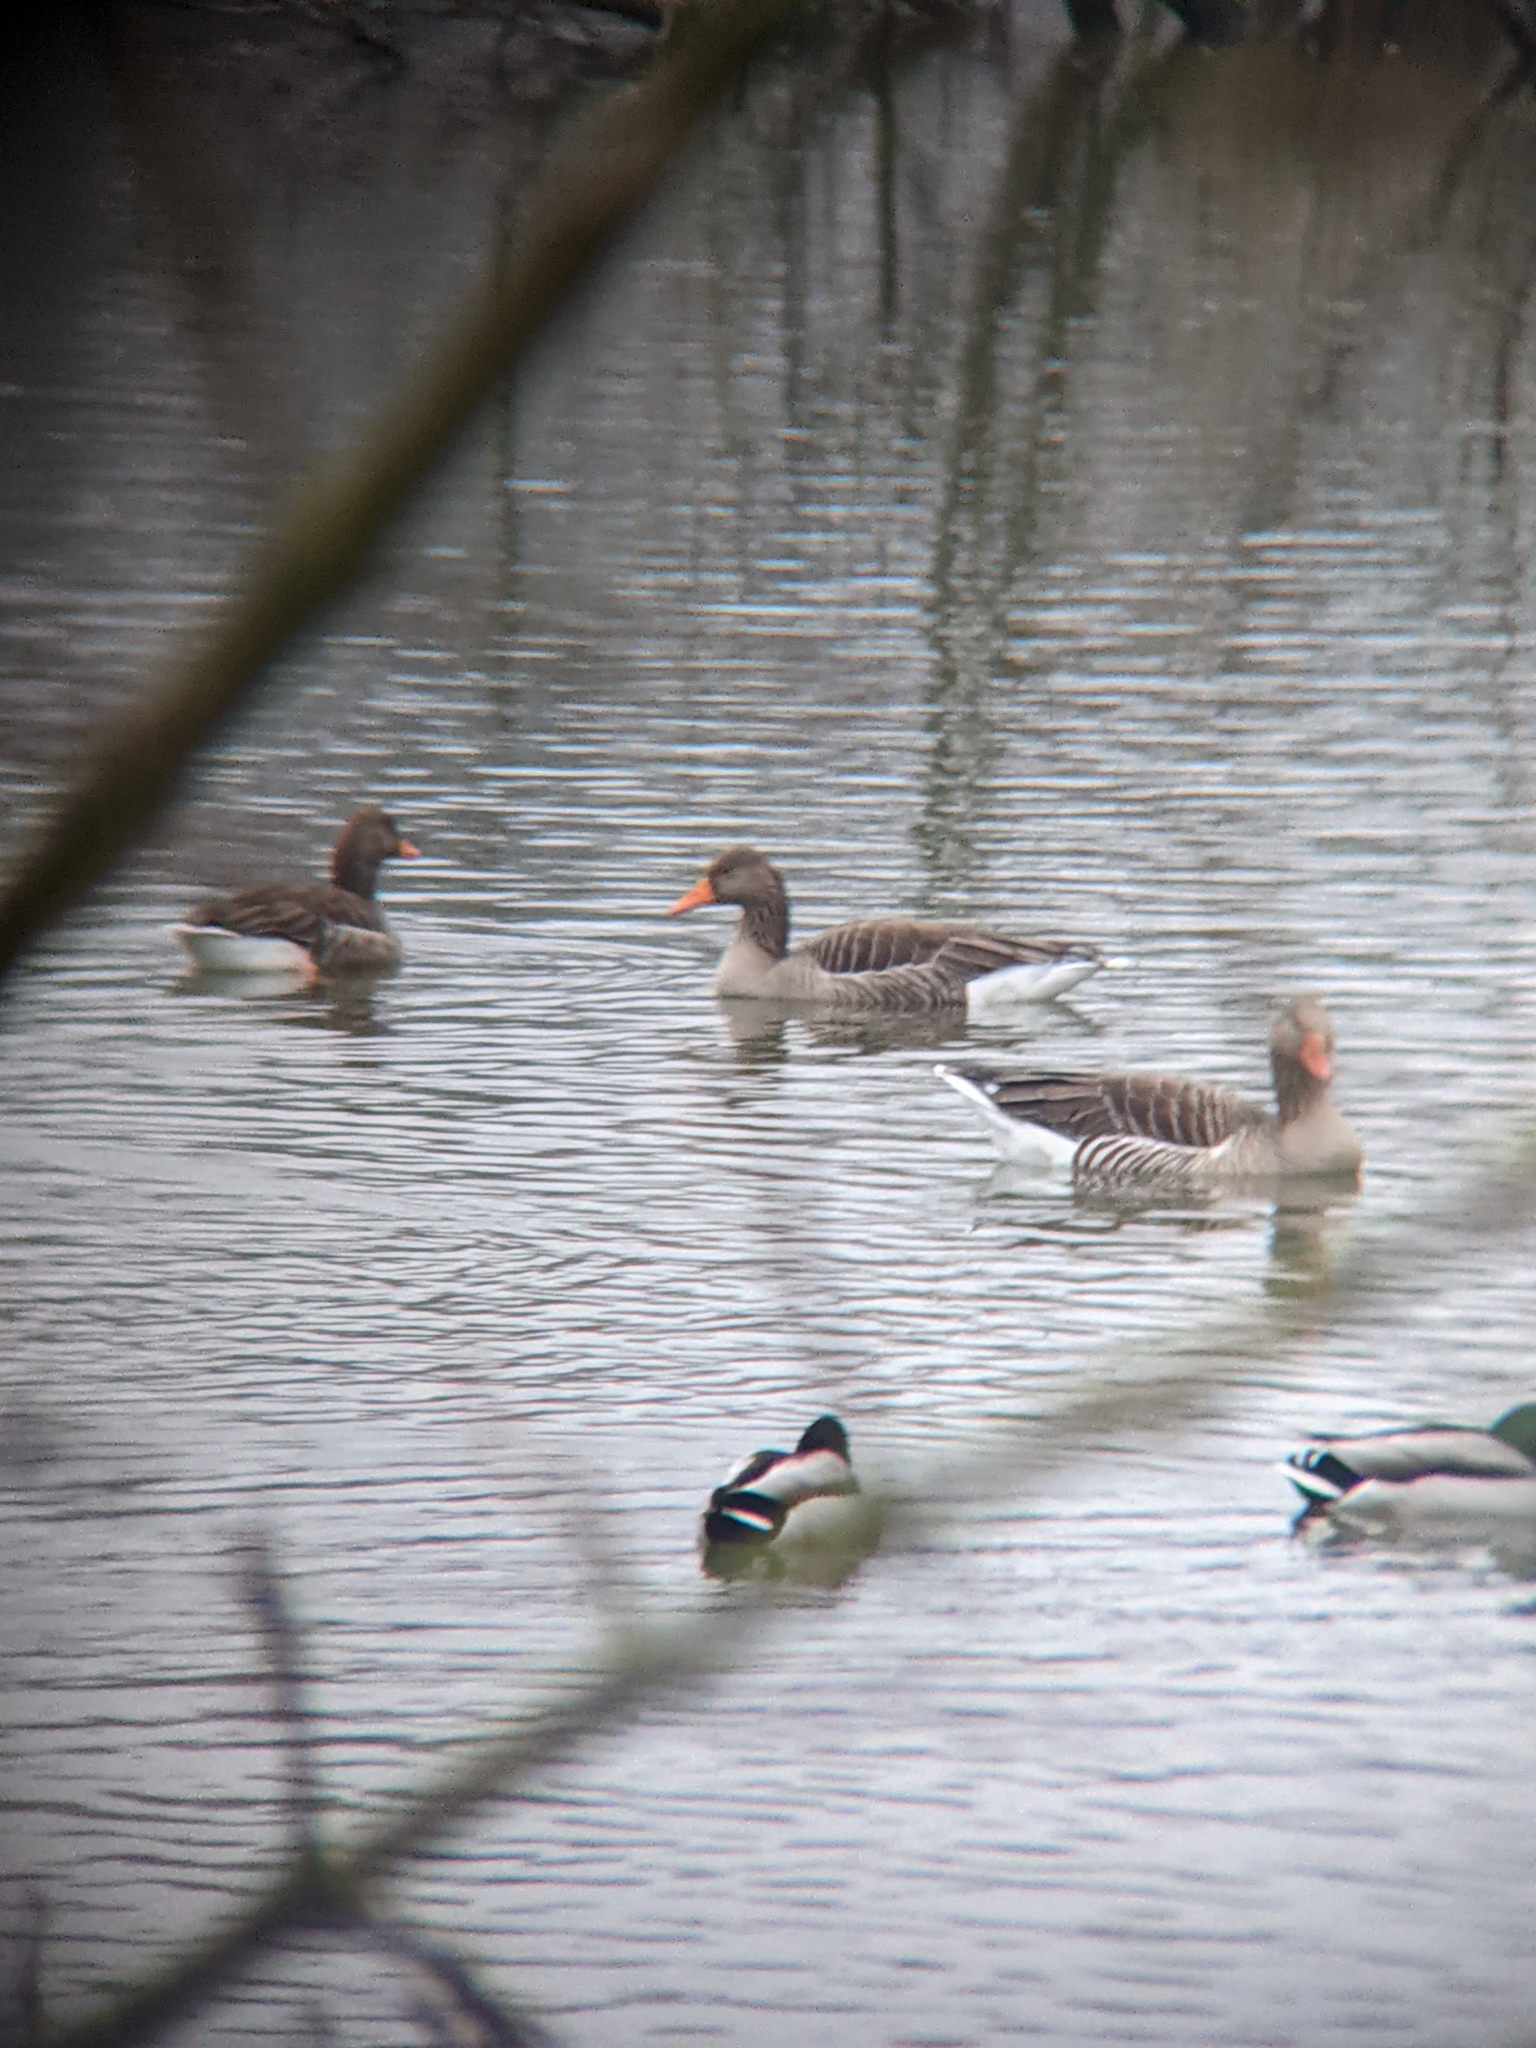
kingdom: Animalia
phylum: Chordata
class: Aves
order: Anseriformes
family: Anatidae
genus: Anser
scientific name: Anser anser
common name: Greylag goose
